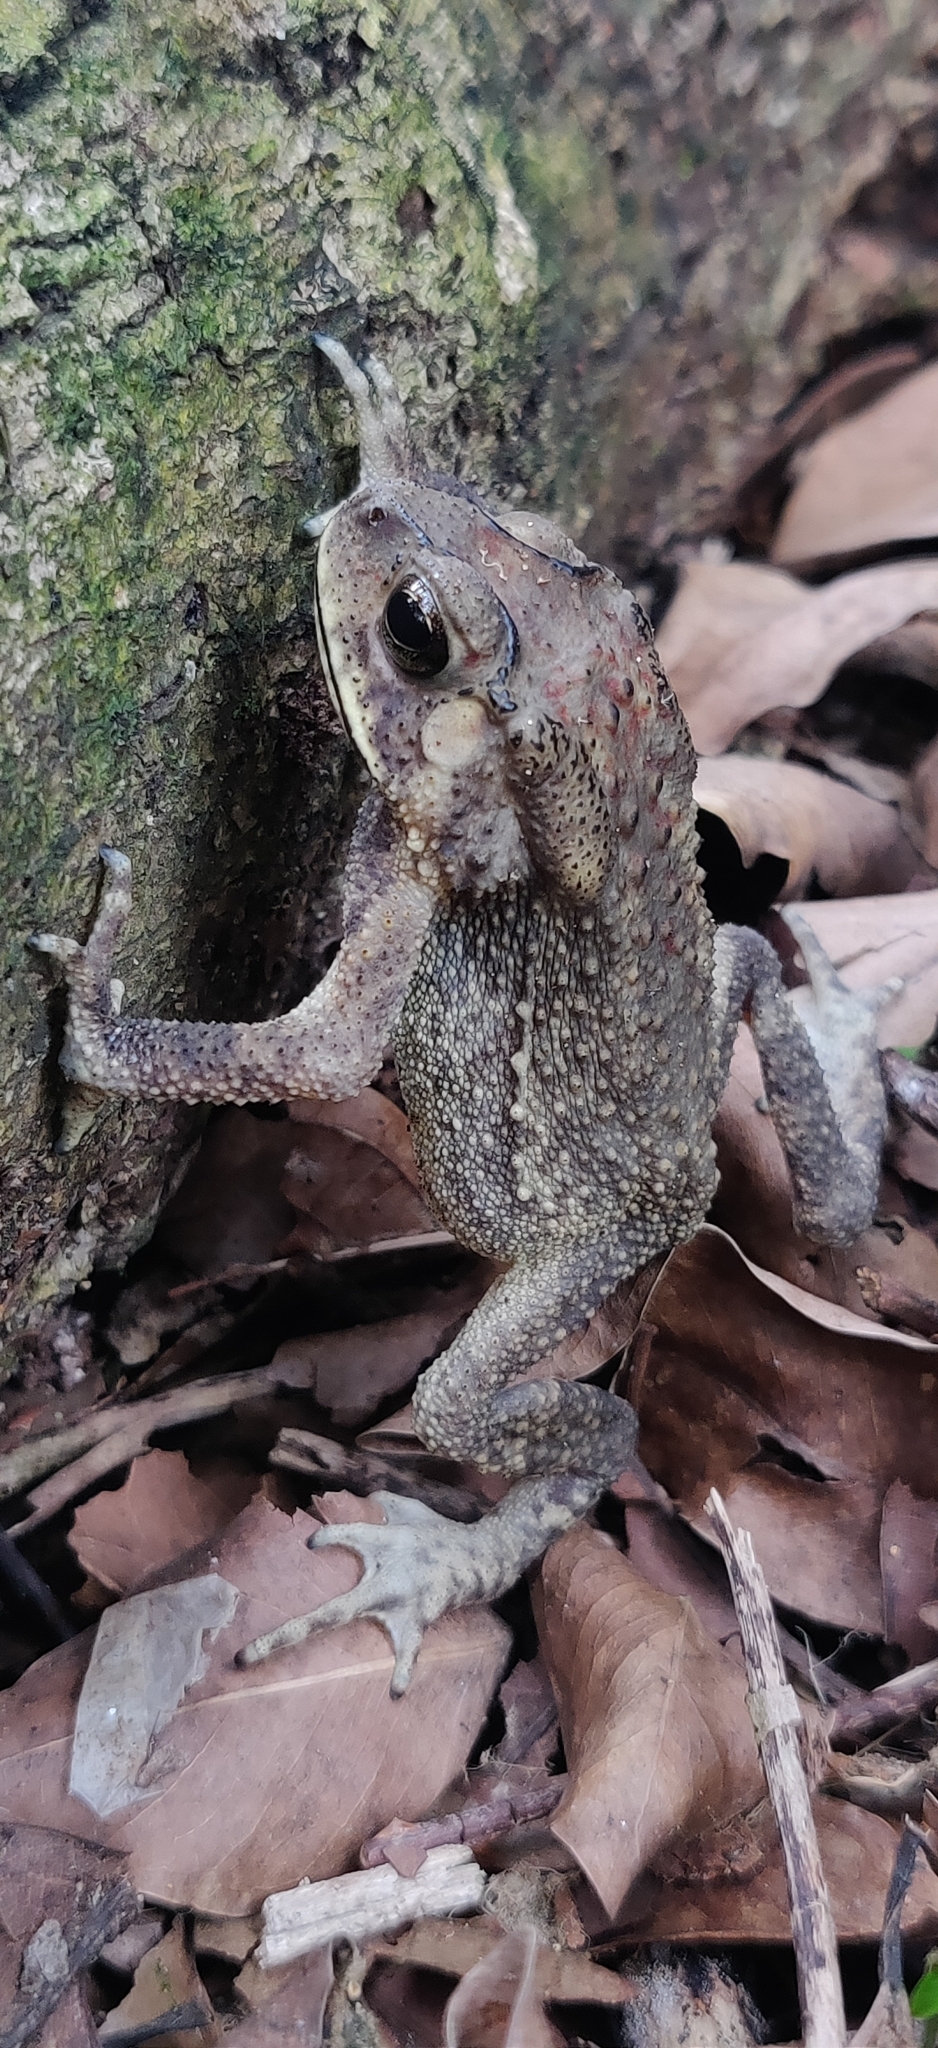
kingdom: Animalia
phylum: Chordata
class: Amphibia
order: Anura
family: Bufonidae
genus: Duttaphrynus
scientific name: Duttaphrynus melanostictus
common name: Common sunda toad
